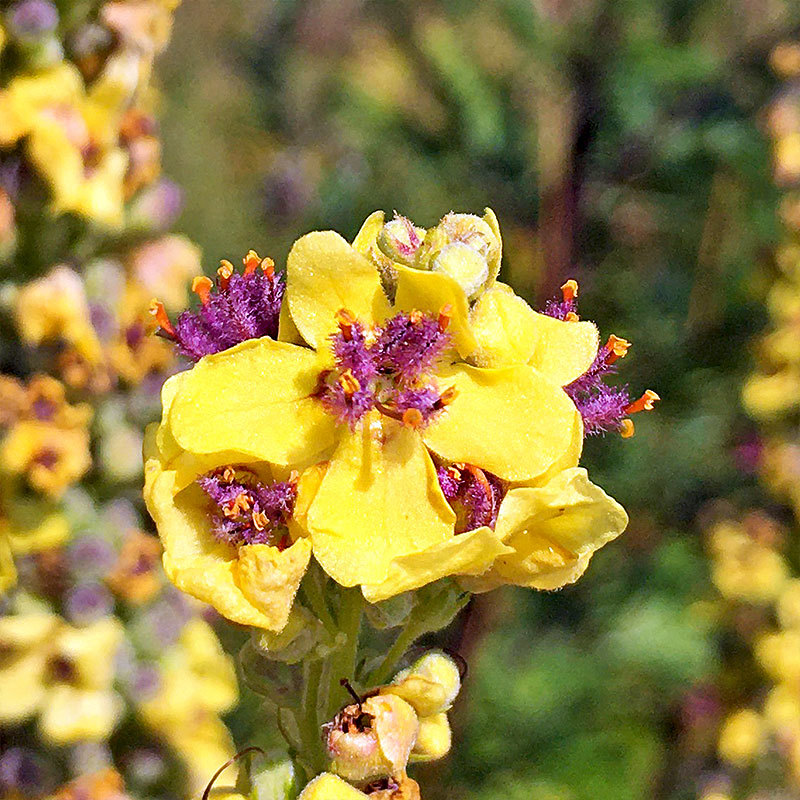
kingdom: Plantae
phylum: Tracheophyta
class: Magnoliopsida
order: Lamiales
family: Scrophulariaceae
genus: Verbascum
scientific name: Verbascum nigrum
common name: Dark mullein
